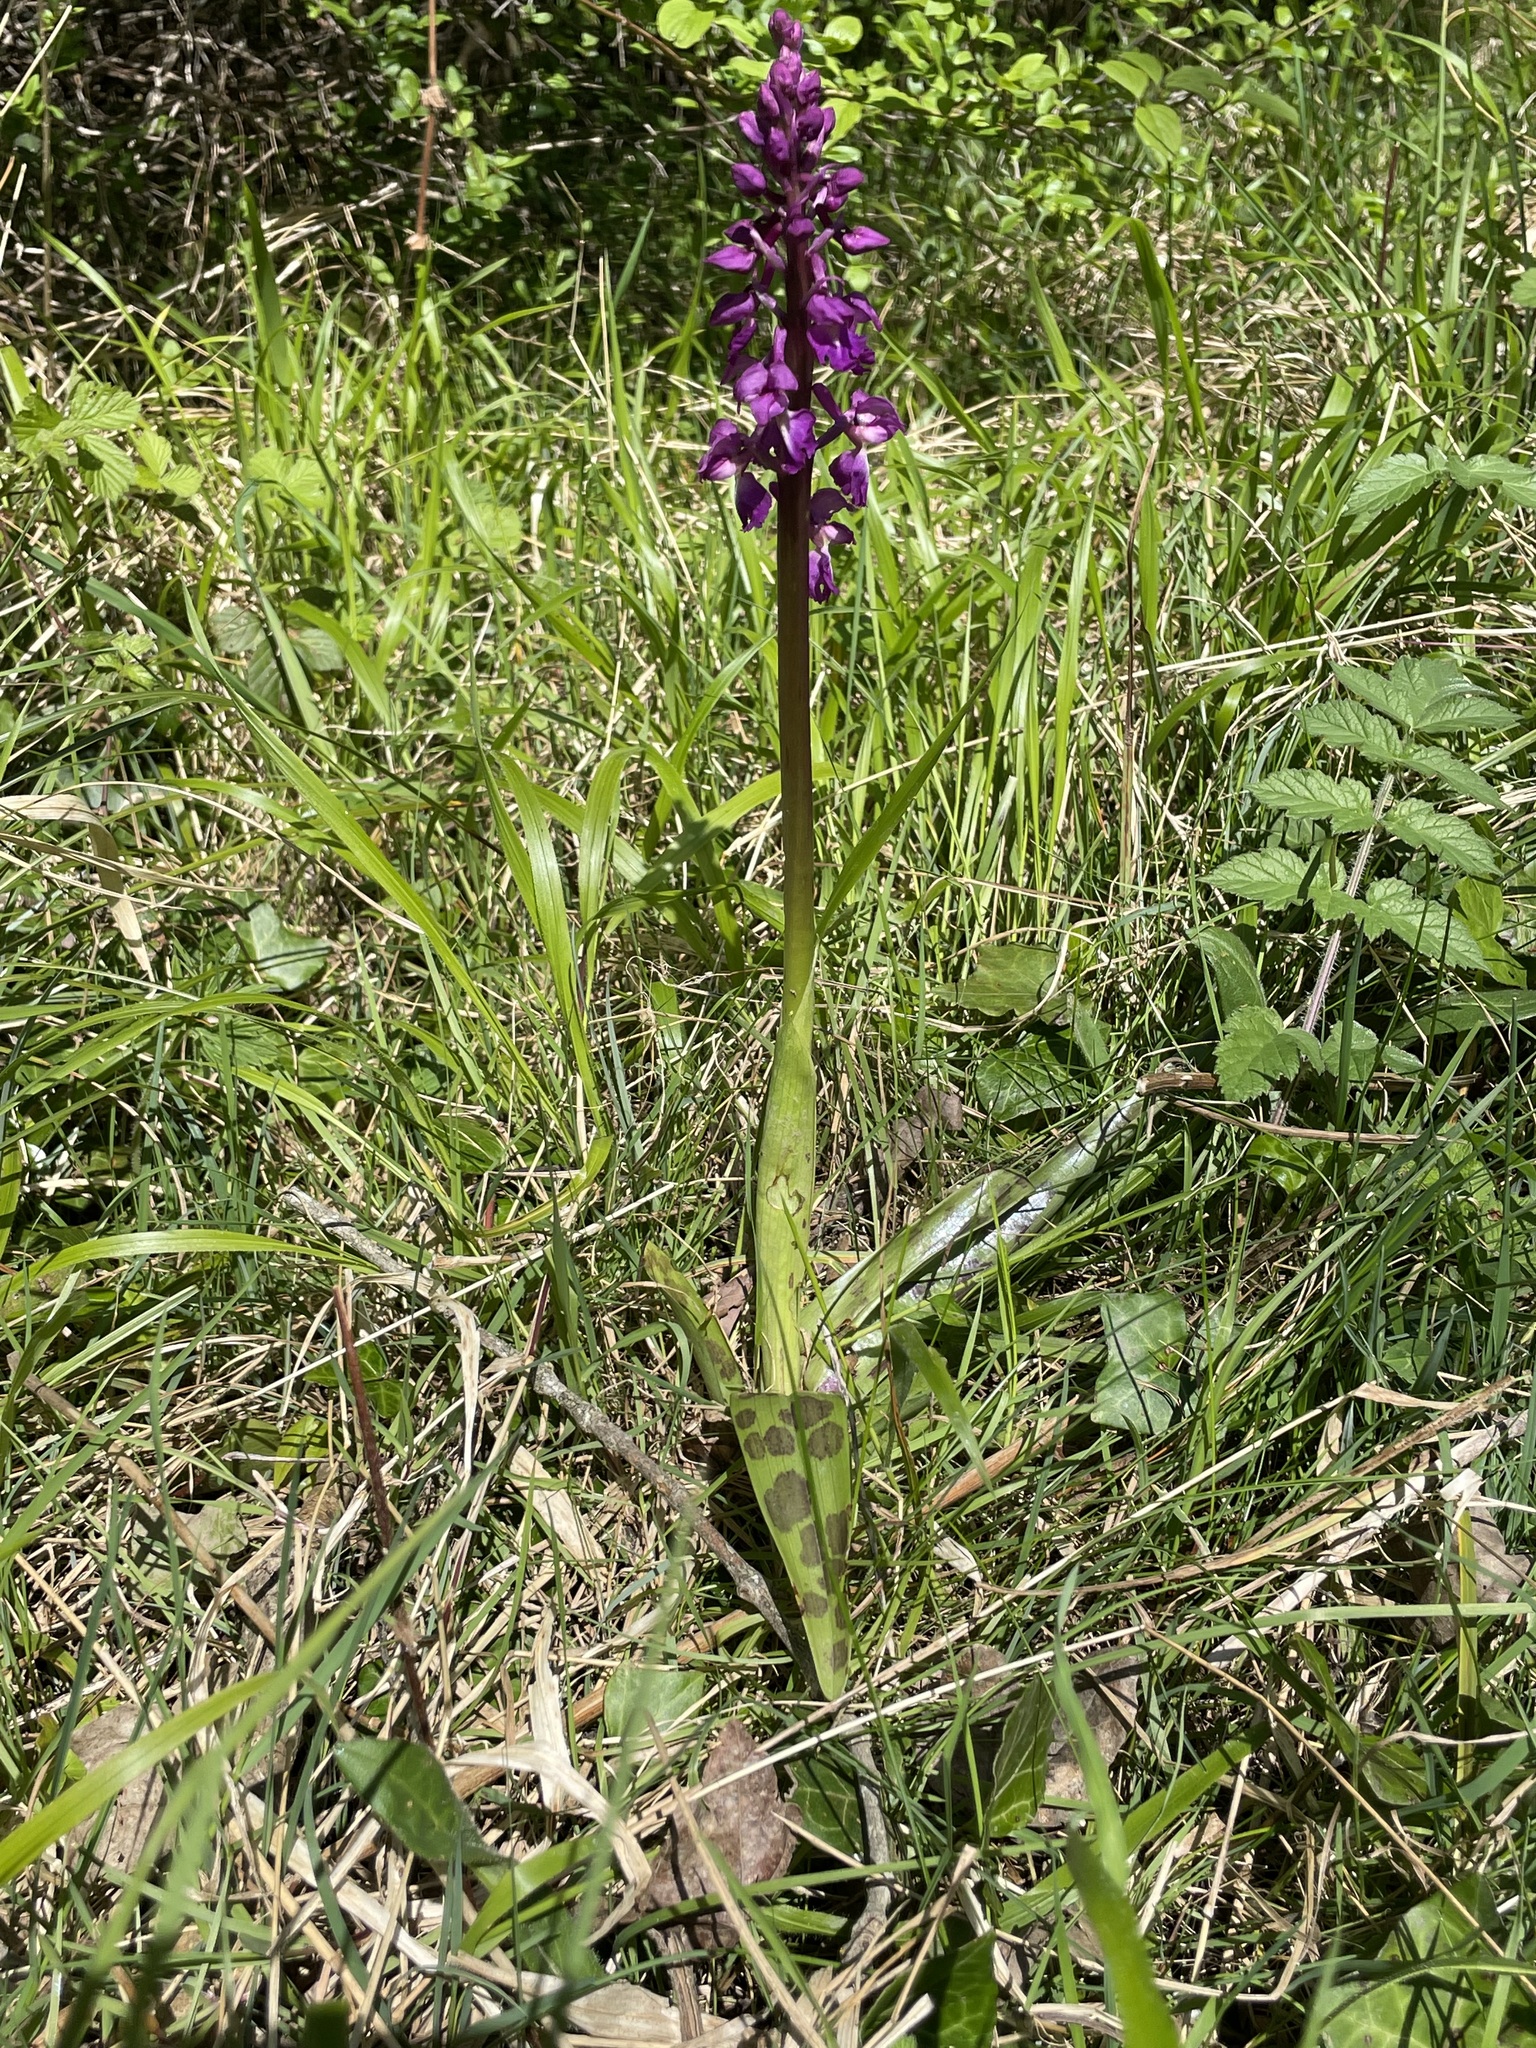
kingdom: Plantae
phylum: Tracheophyta
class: Liliopsida
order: Asparagales
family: Orchidaceae
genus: Orchis
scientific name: Orchis mascula
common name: Early-purple orchid
